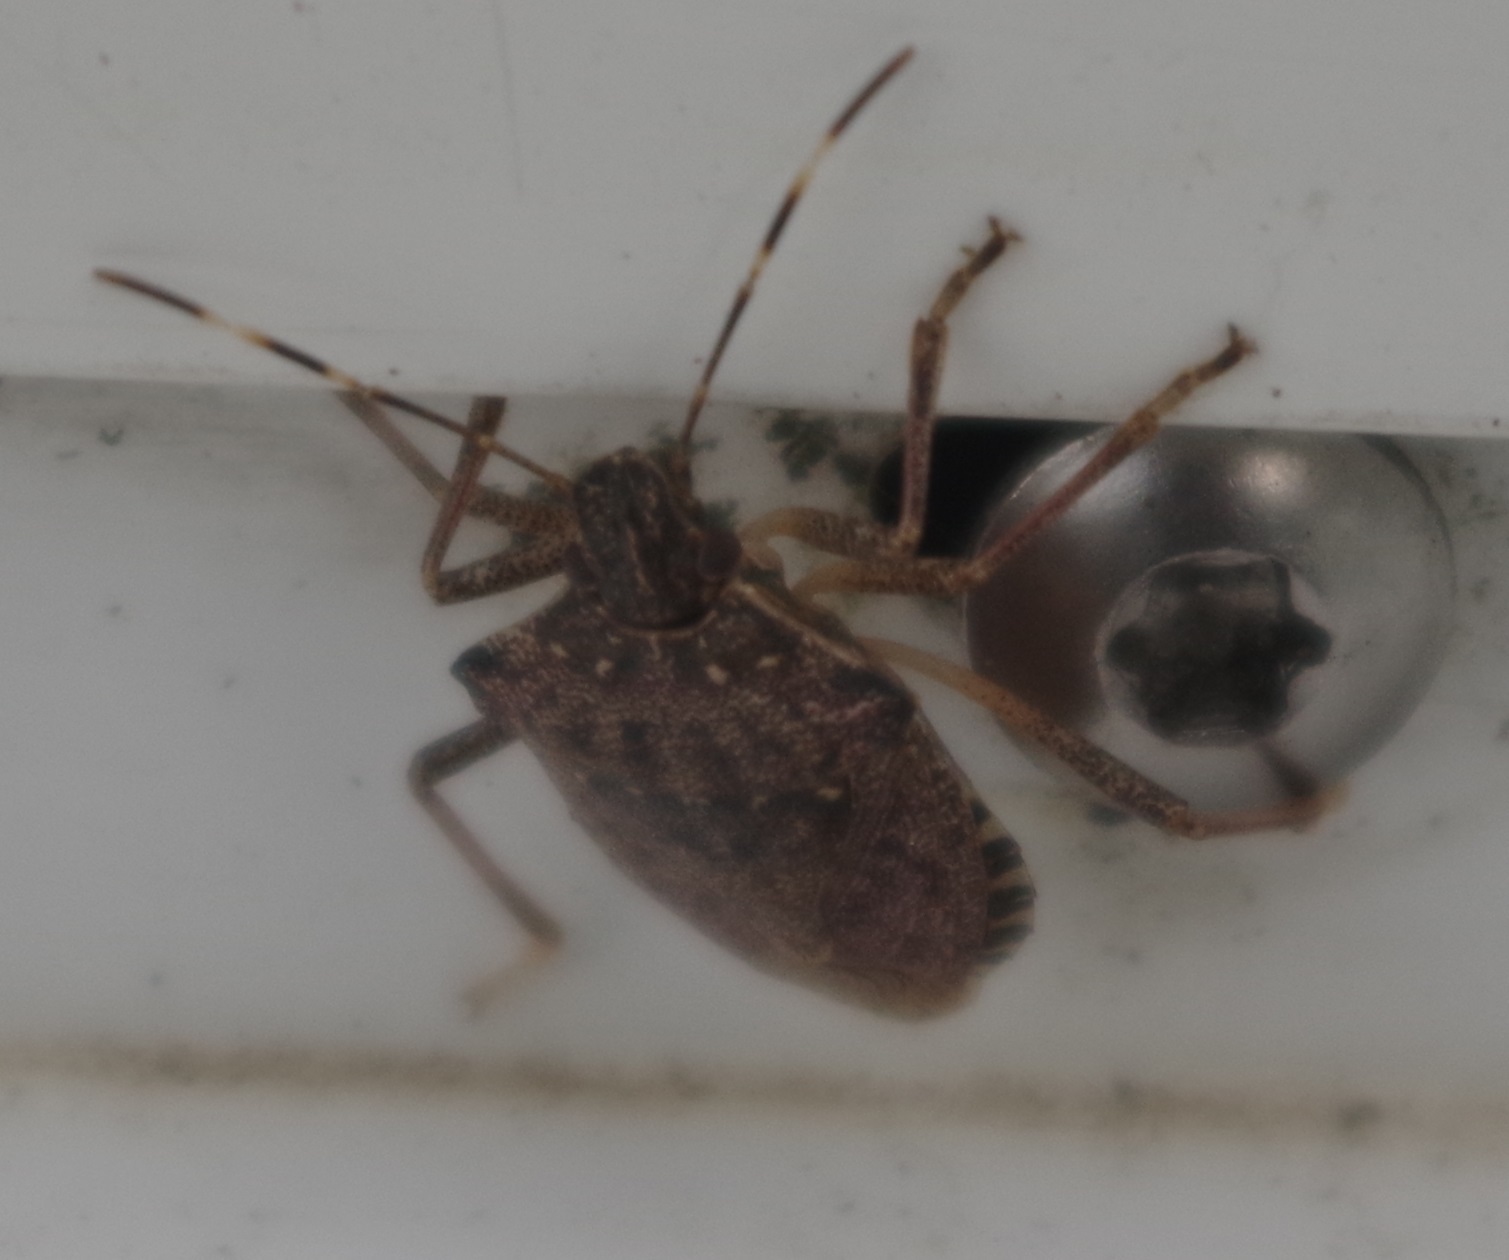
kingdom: Animalia
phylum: Arthropoda
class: Insecta
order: Hemiptera
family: Pentatomidae
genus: Halyomorpha
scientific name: Halyomorpha halys
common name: Brown marmorated stink bug
